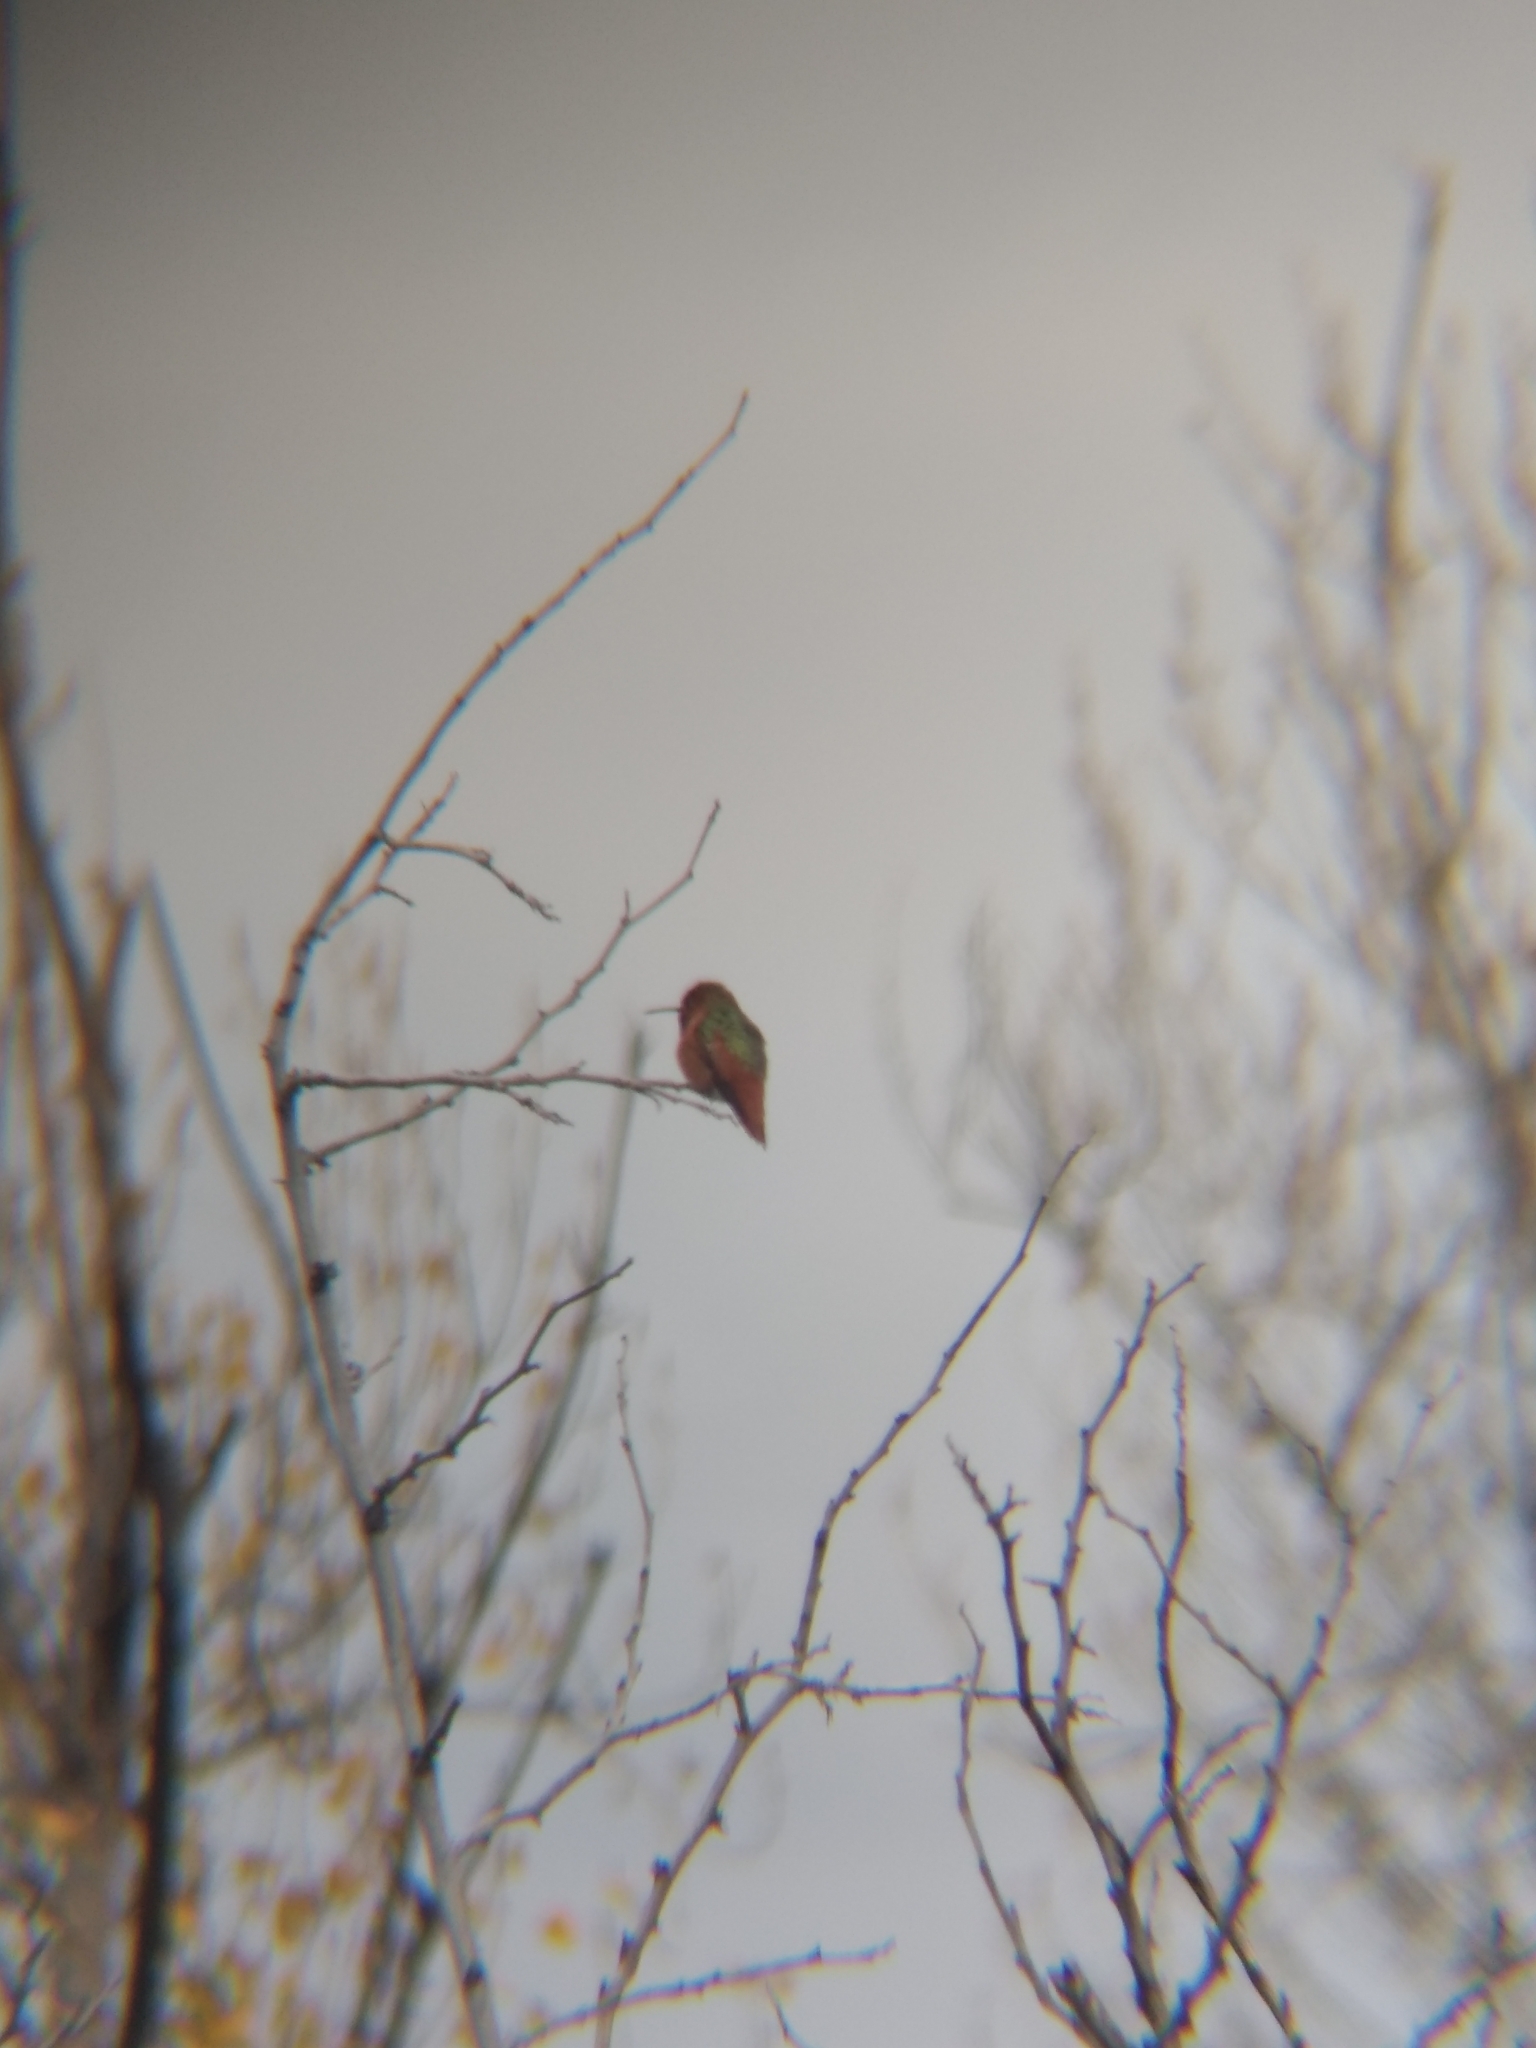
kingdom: Animalia
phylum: Chordata
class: Aves
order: Apodiformes
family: Trochilidae
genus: Selasphorus
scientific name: Selasphorus sasin
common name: Allen's hummingbird
